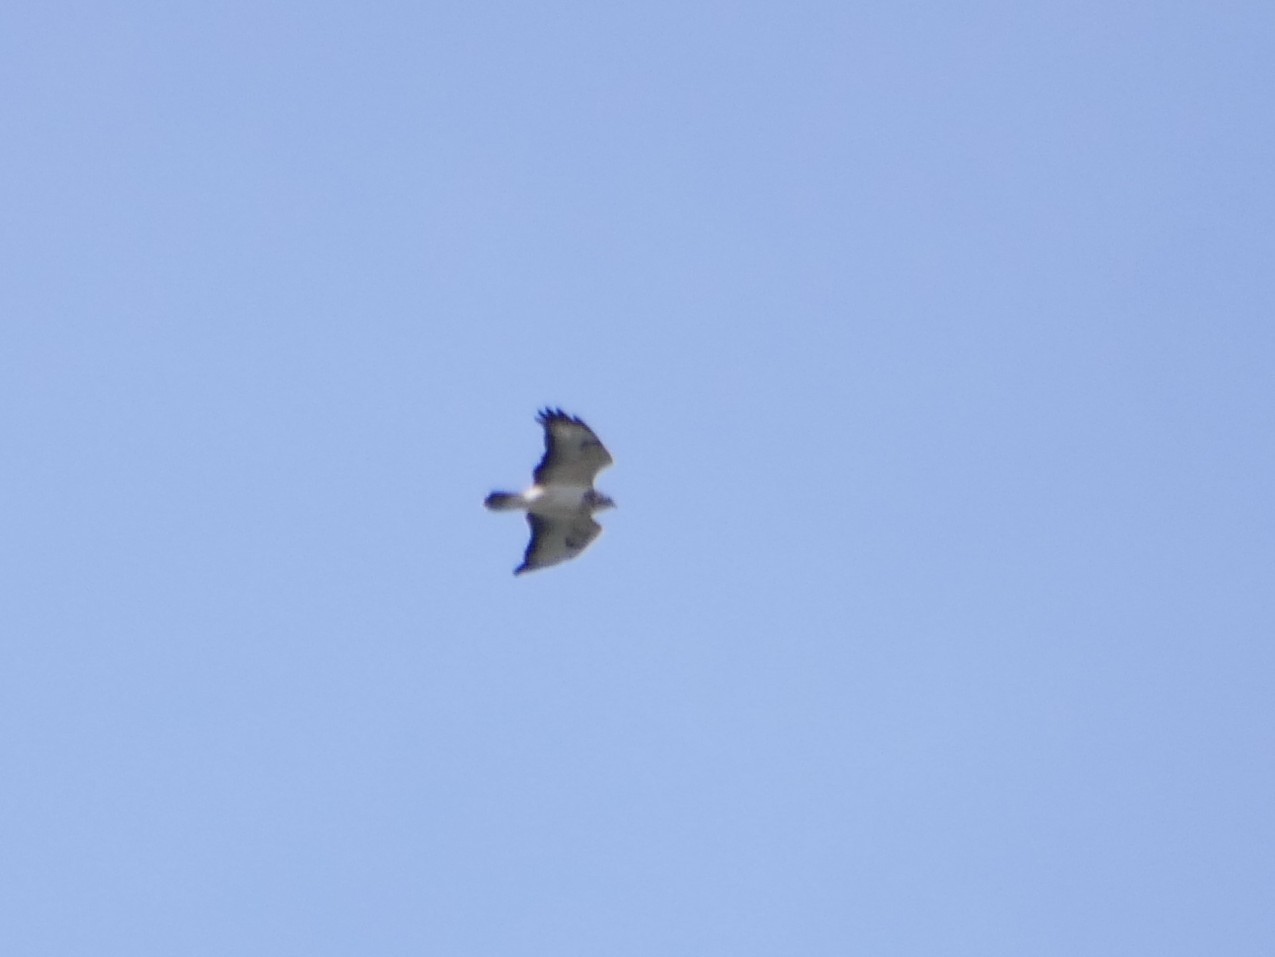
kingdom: Animalia
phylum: Chordata
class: Aves
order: Accipitriformes
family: Accipitridae
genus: Buteo
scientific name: Buteo buteo
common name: Common buzzard
